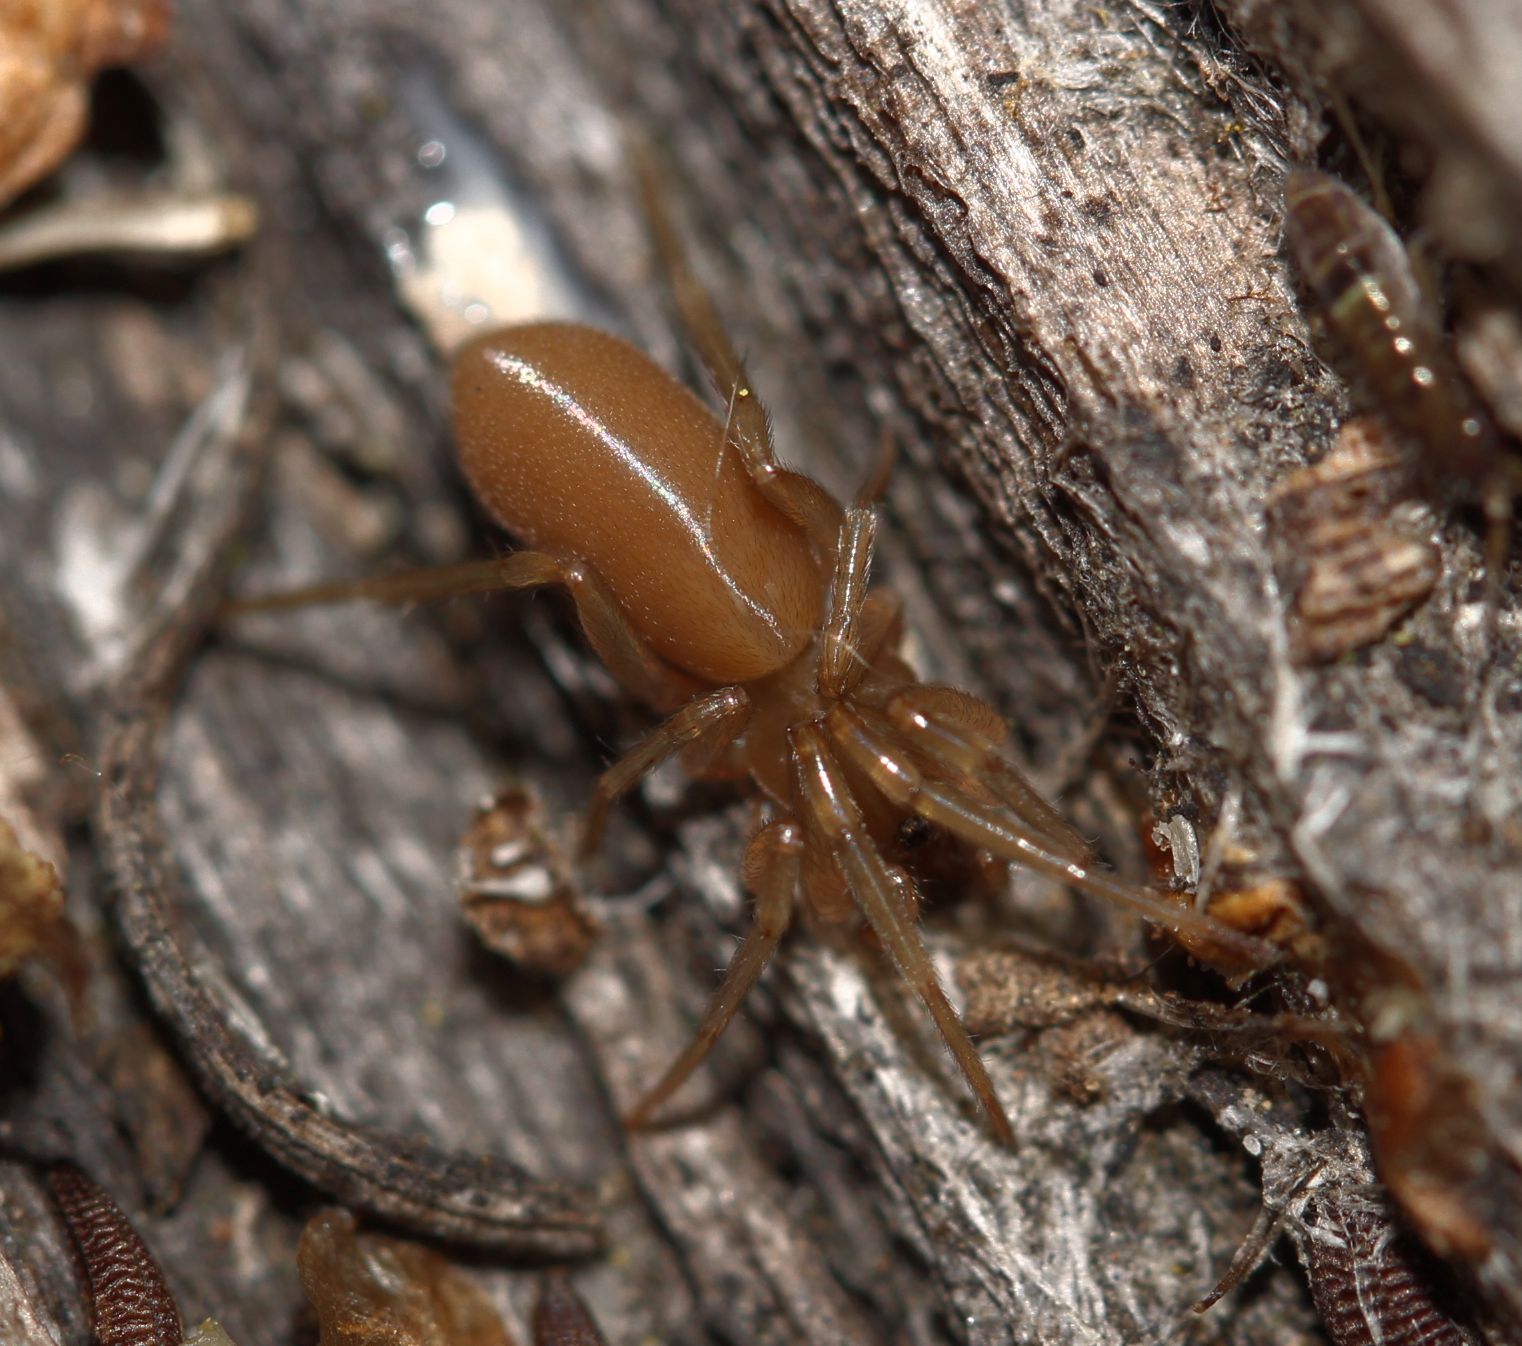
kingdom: Animalia
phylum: Arthropoda
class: Arachnida
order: Araneae
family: Dysderidae
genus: Harpactea
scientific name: Harpactea
